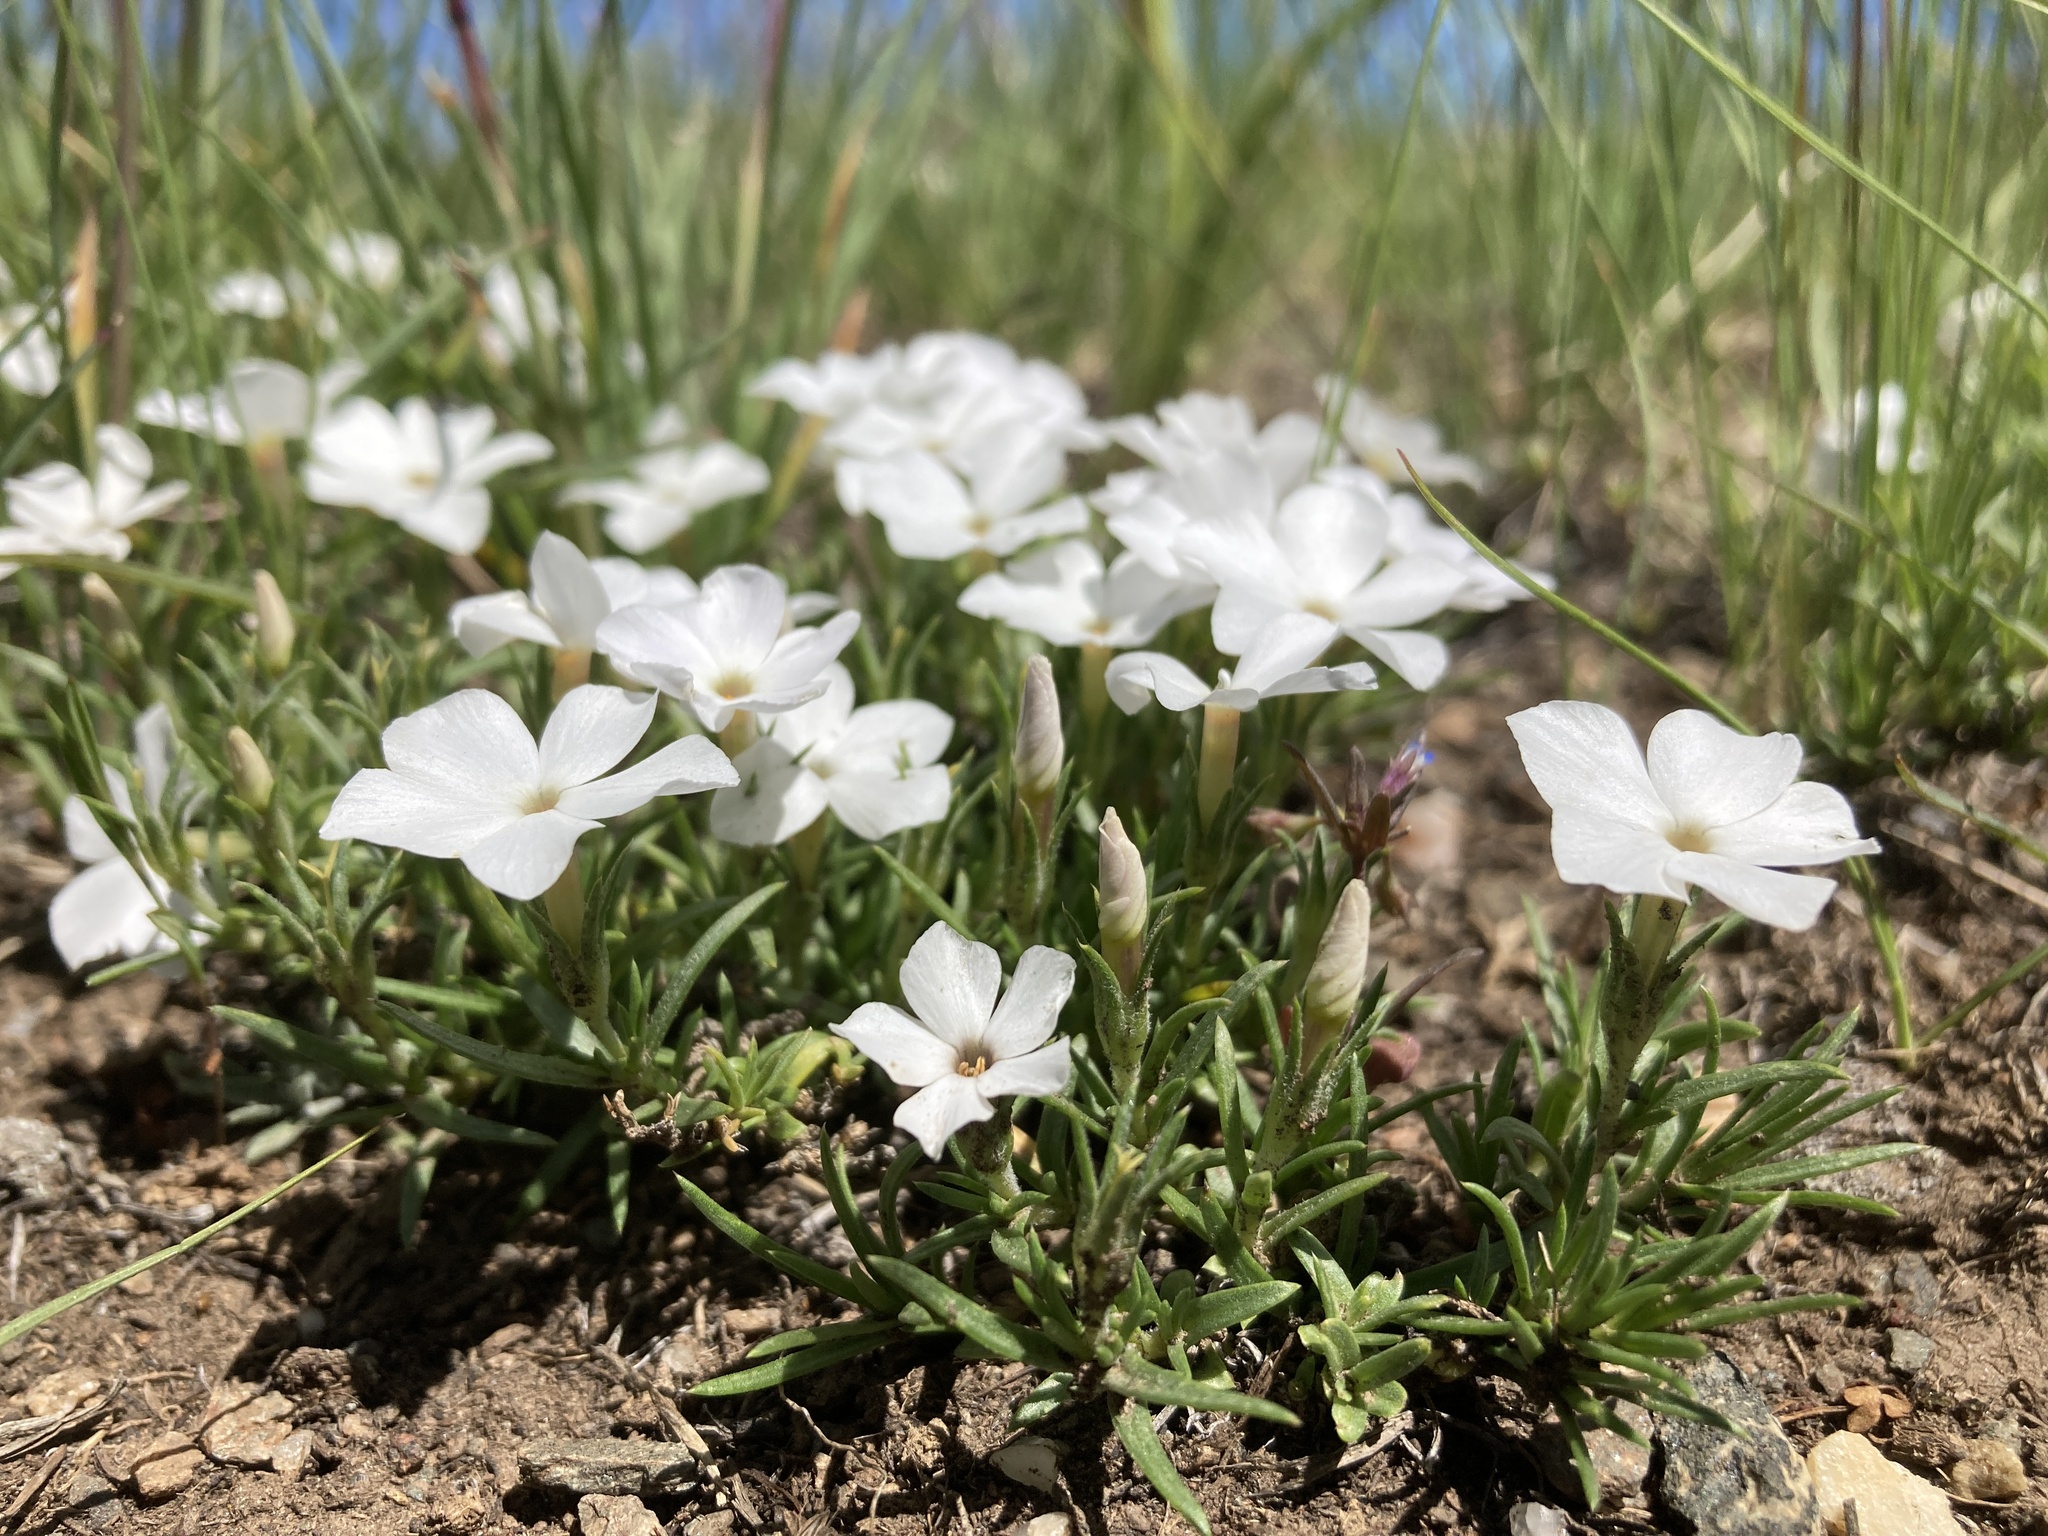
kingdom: Plantae
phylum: Tracheophyta
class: Magnoliopsida
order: Ericales
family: Polemoniaceae
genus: Phlox
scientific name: Phlox multiflora
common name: Rocky mountain phlox
